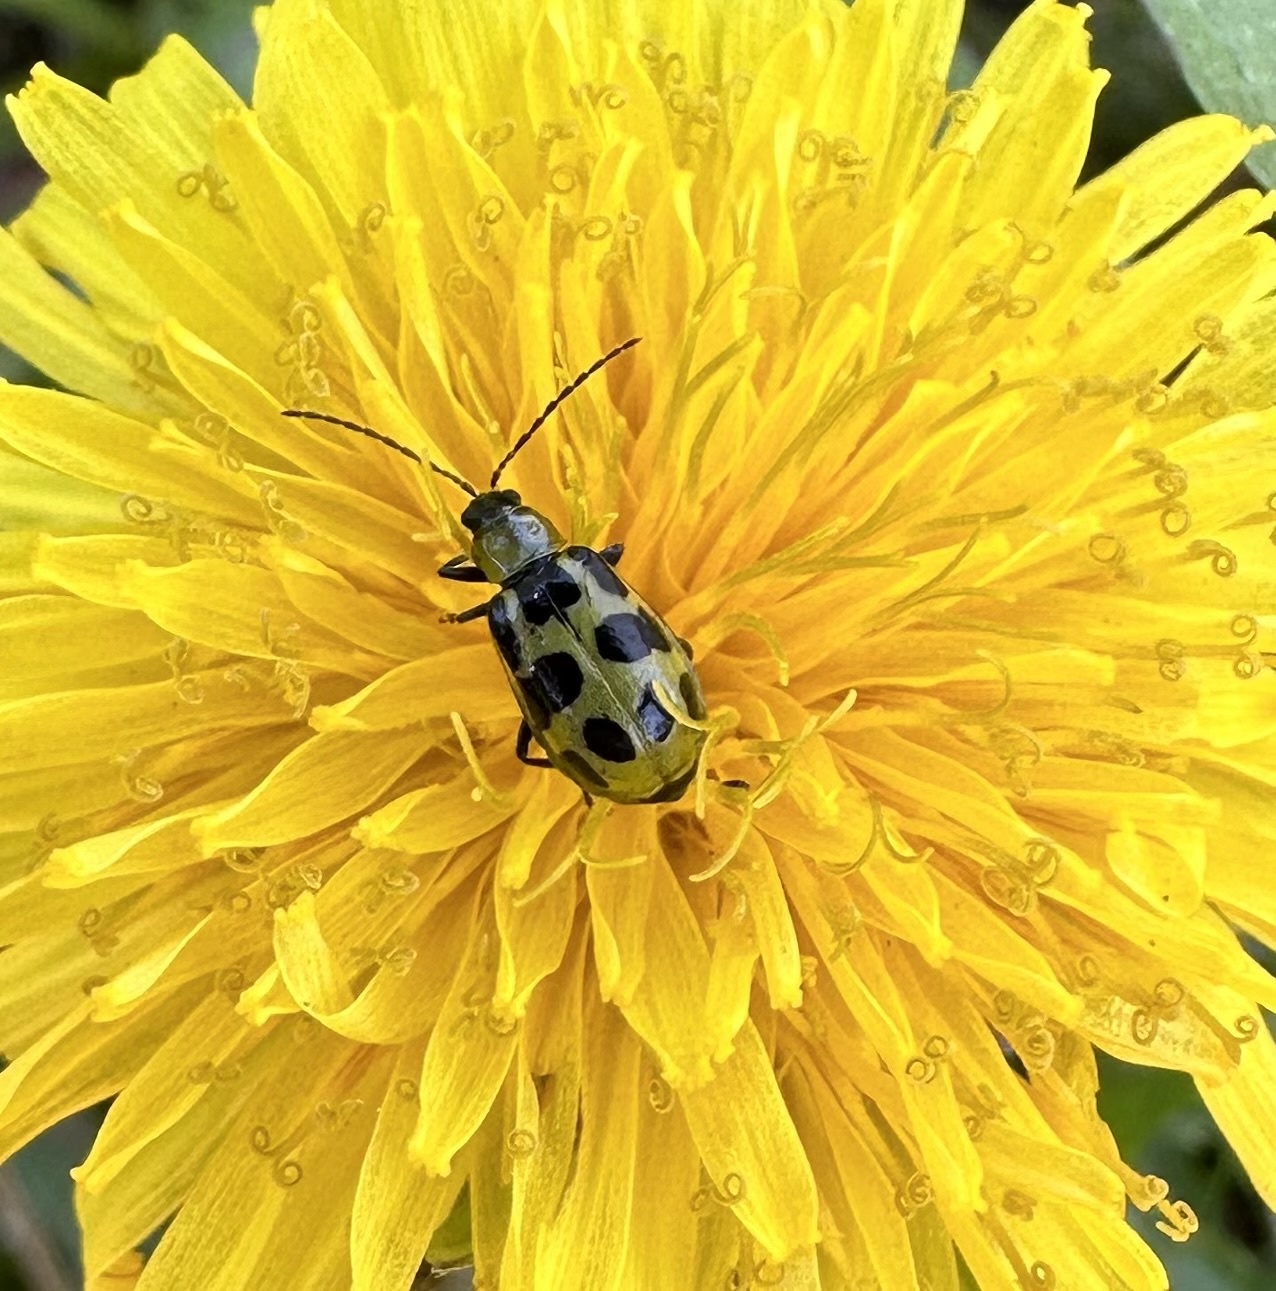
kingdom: Animalia
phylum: Arthropoda
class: Insecta
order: Coleoptera
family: Chrysomelidae
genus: Diabrotica
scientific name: Diabrotica undecimpunctata
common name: Spotted cucumber beetle
